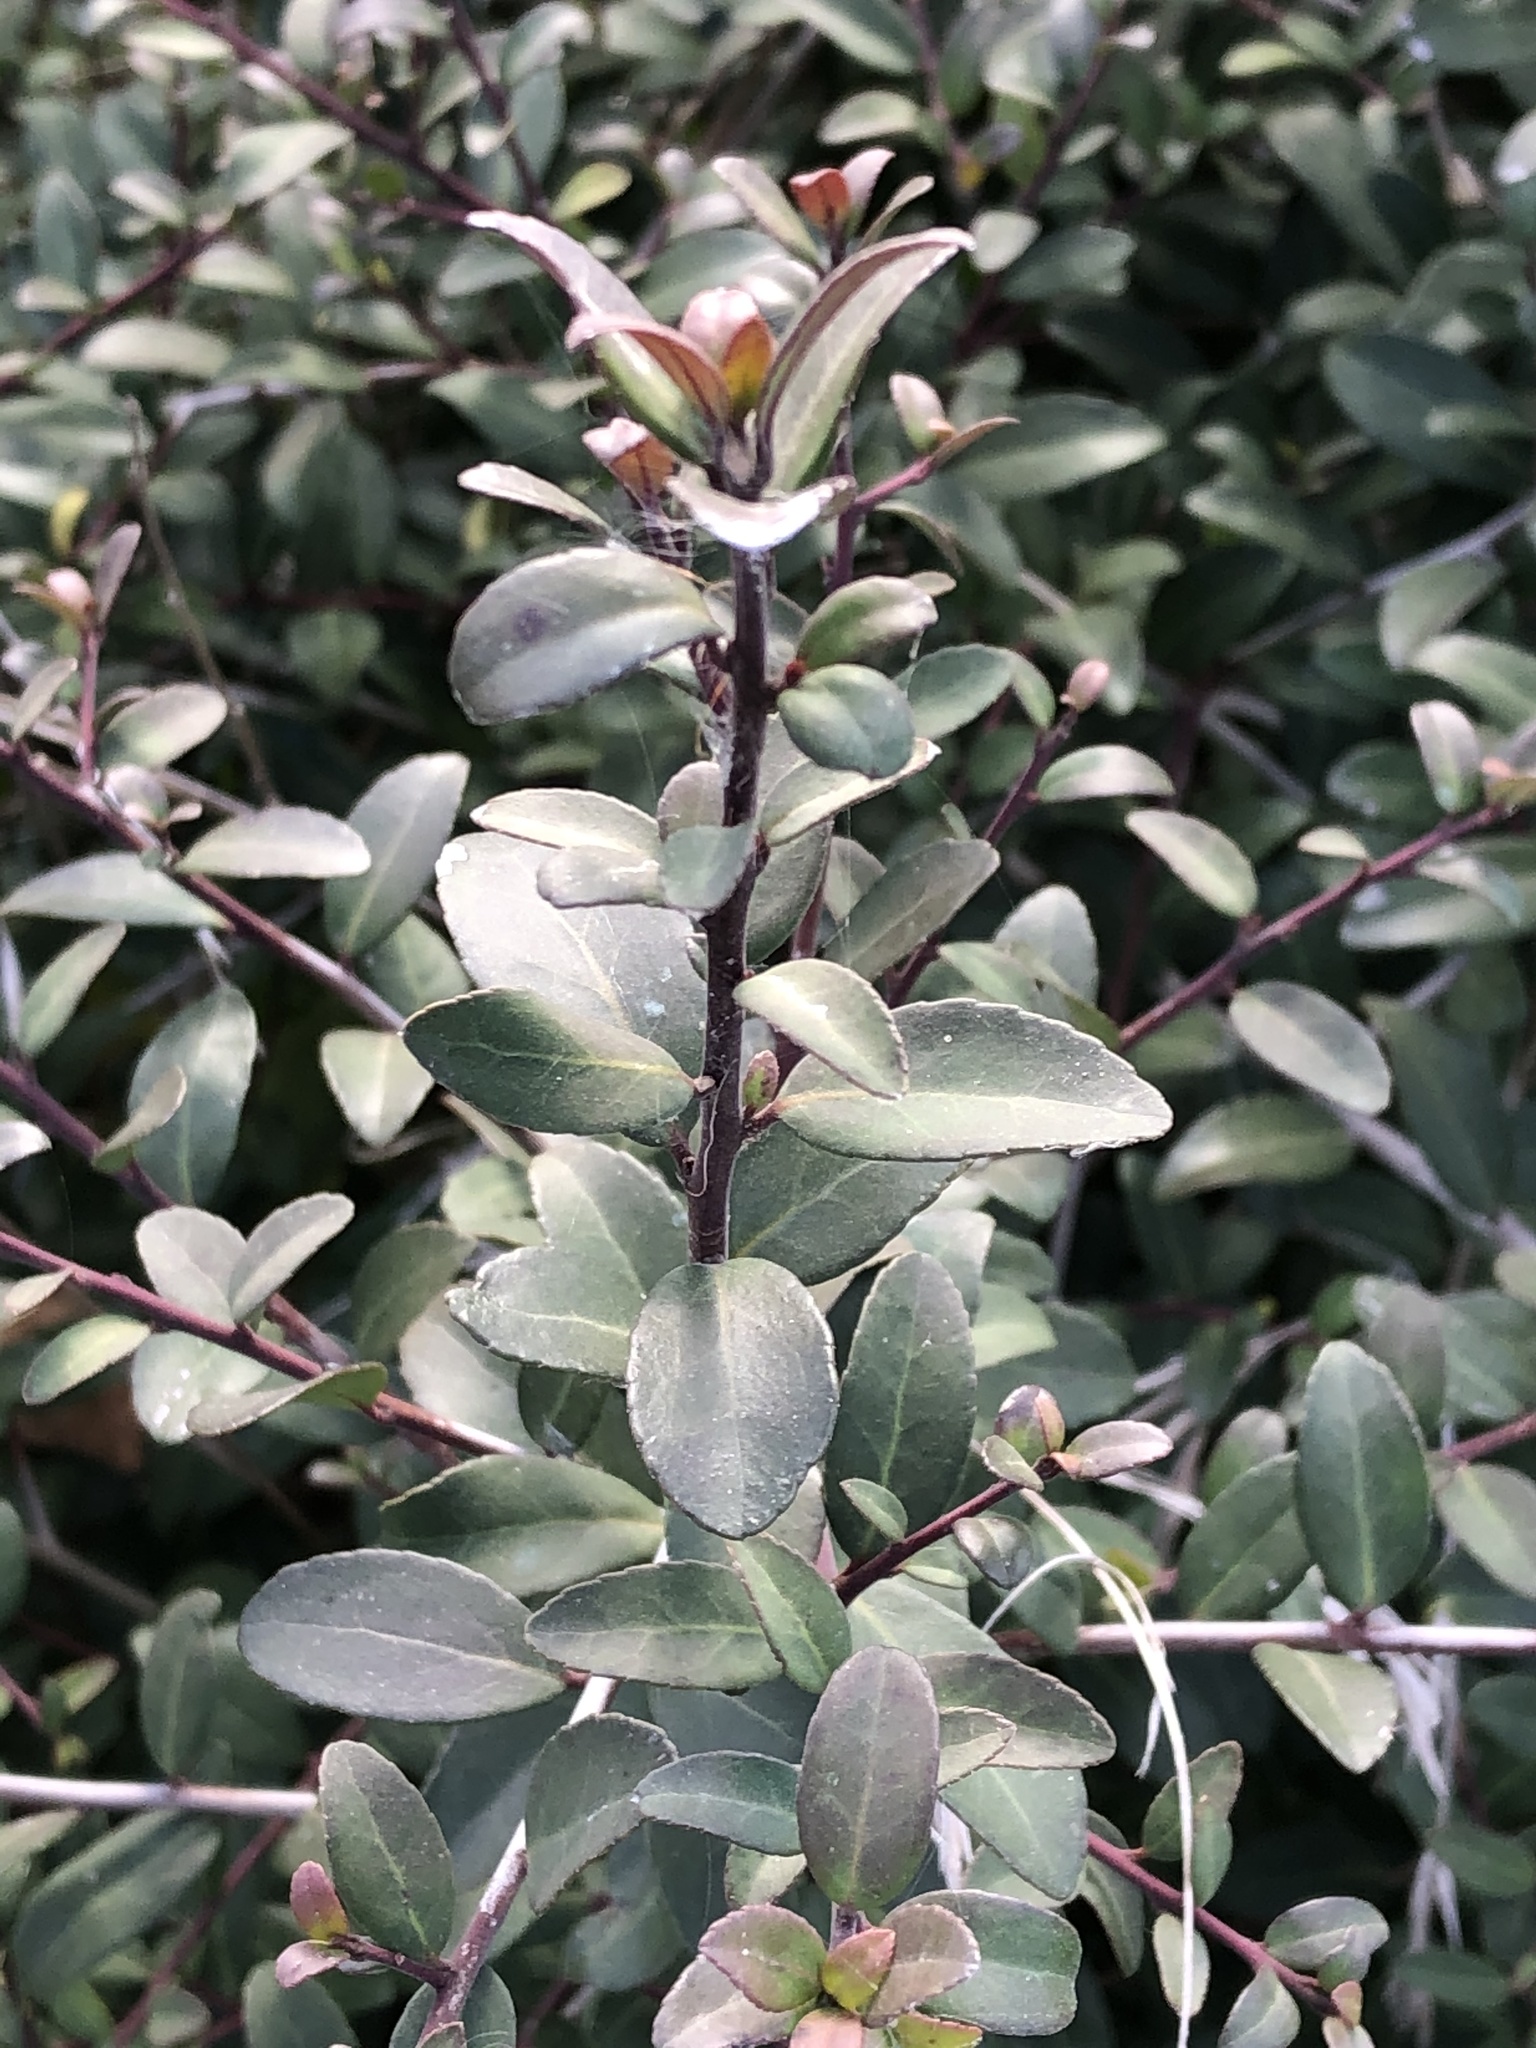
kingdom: Plantae
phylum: Tracheophyta
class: Magnoliopsida
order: Aquifoliales
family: Aquifoliaceae
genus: Ilex
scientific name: Ilex vomitoria
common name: Yaupon holly
